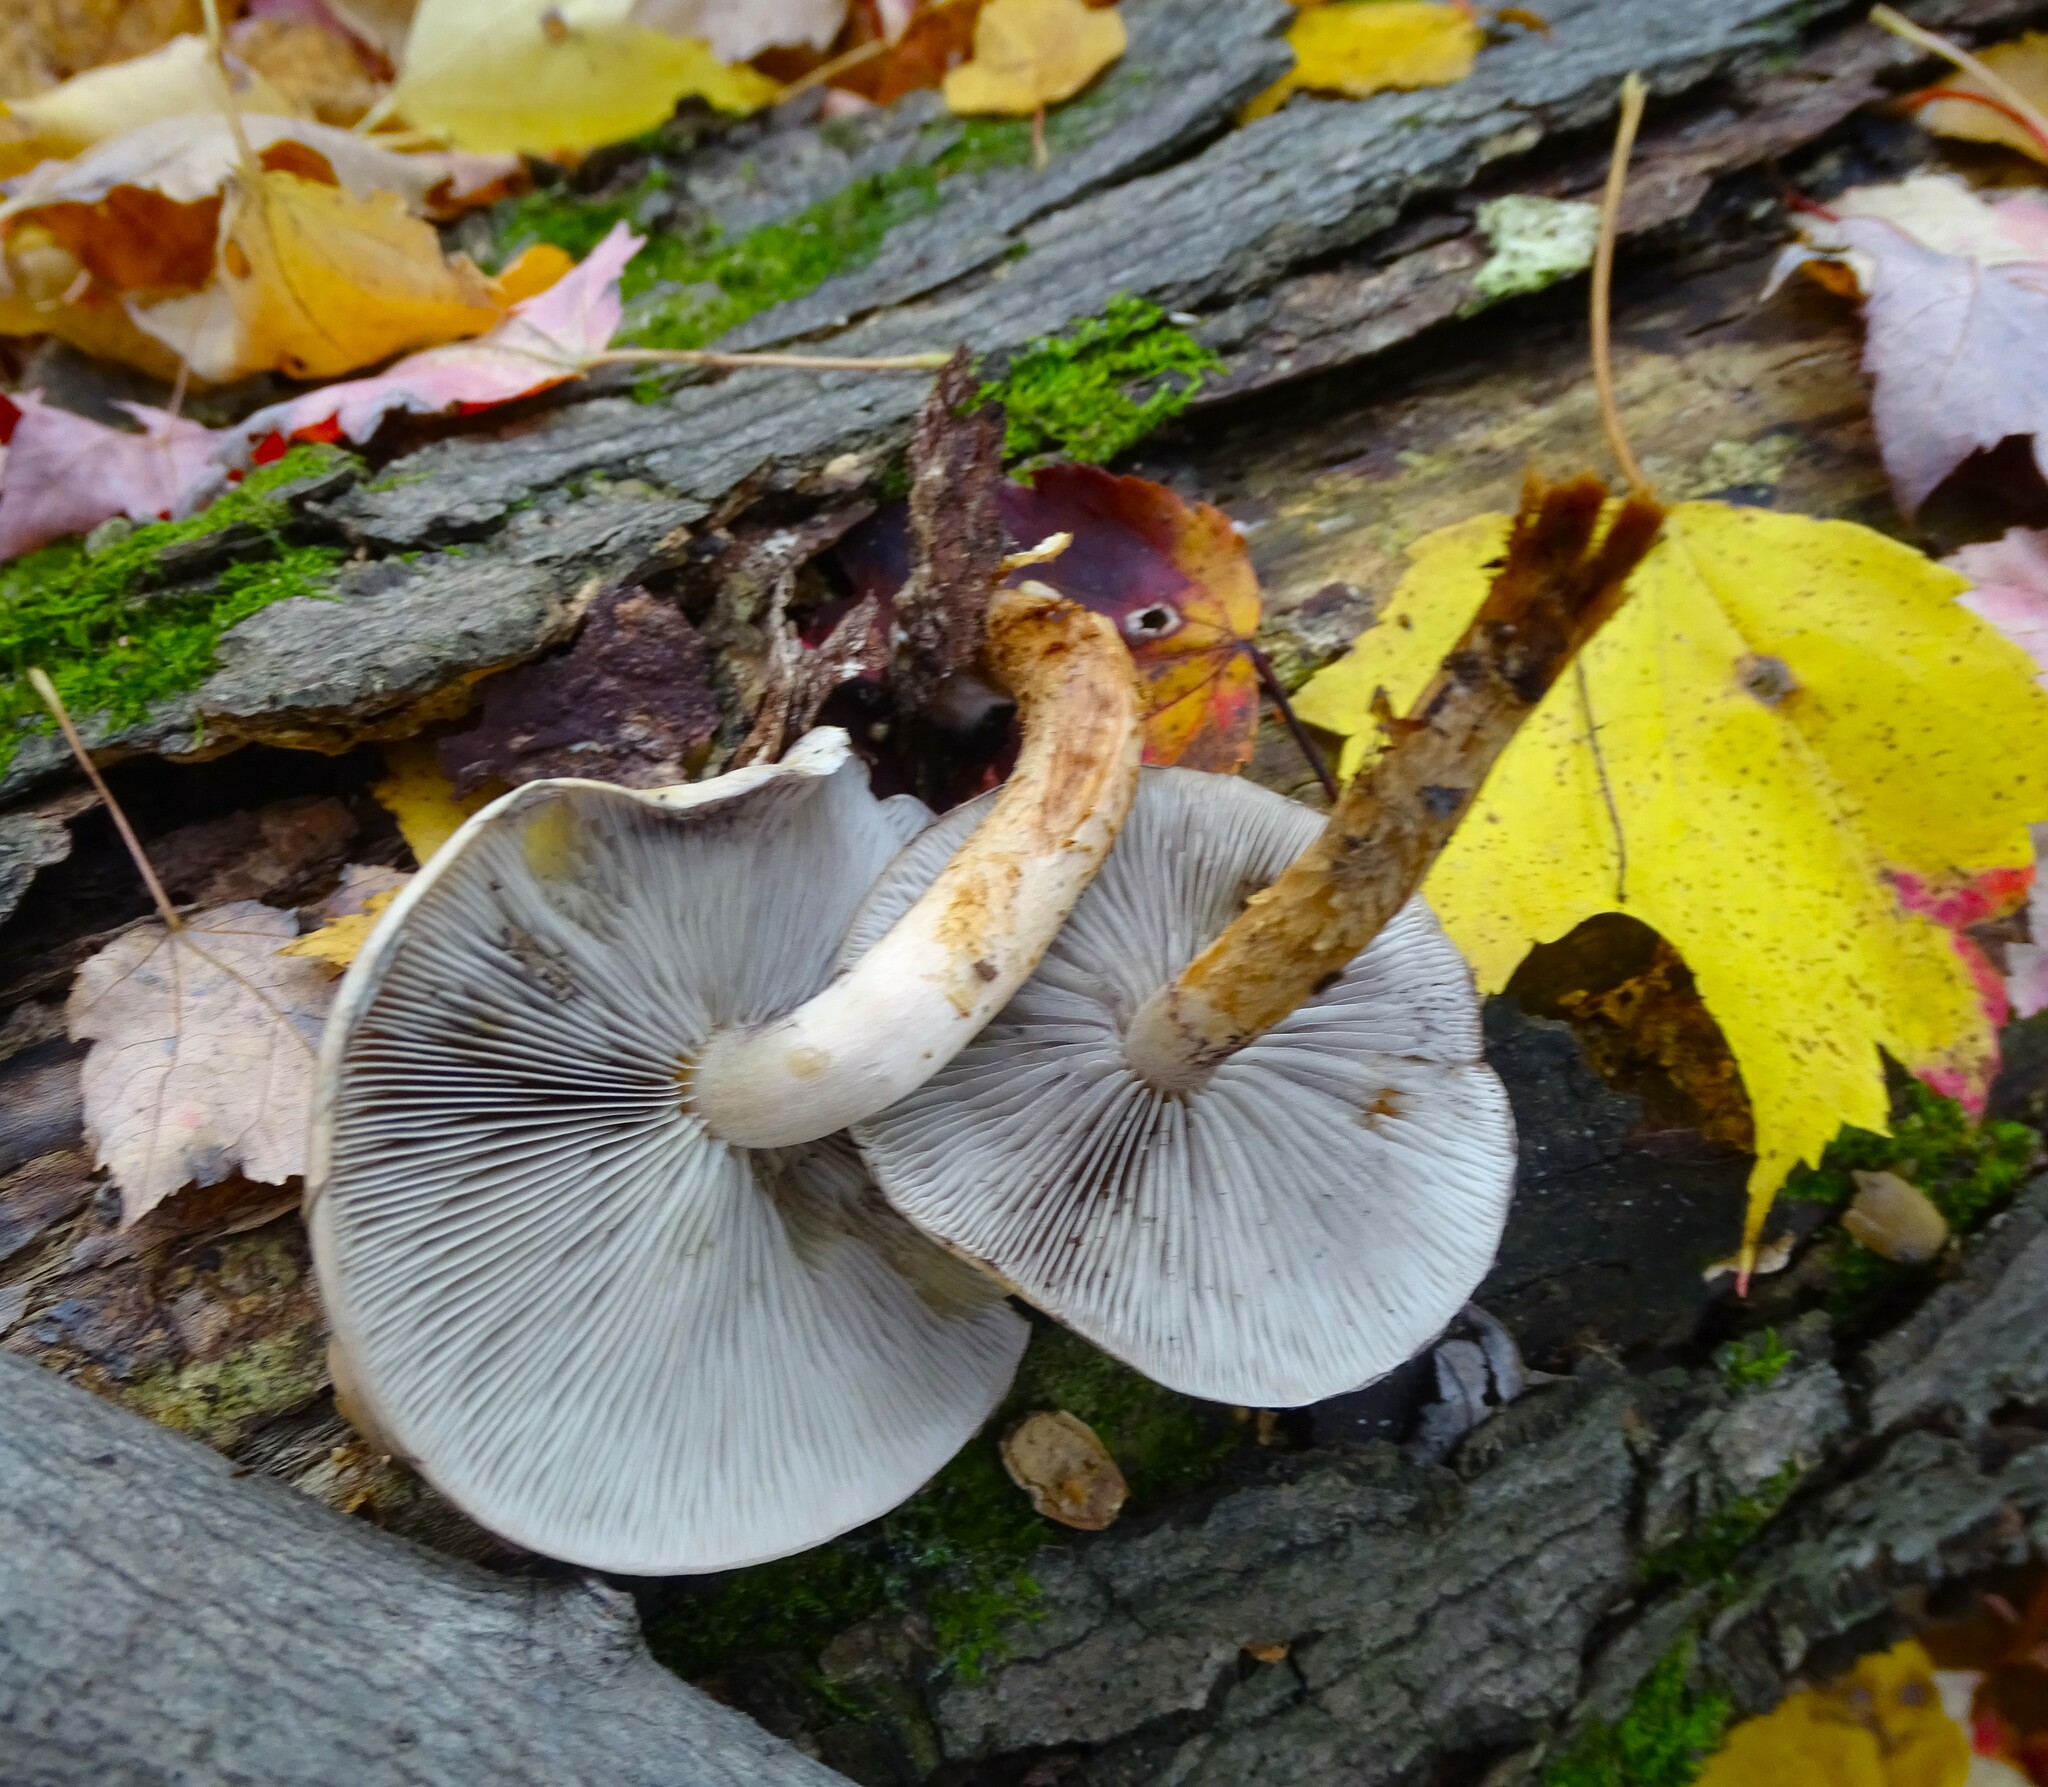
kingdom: Fungi
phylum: Basidiomycota
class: Agaricomycetes
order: Agaricales
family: Strophariaceae
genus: Hypholoma
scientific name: Hypholoma lateritium
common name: Brick caps
